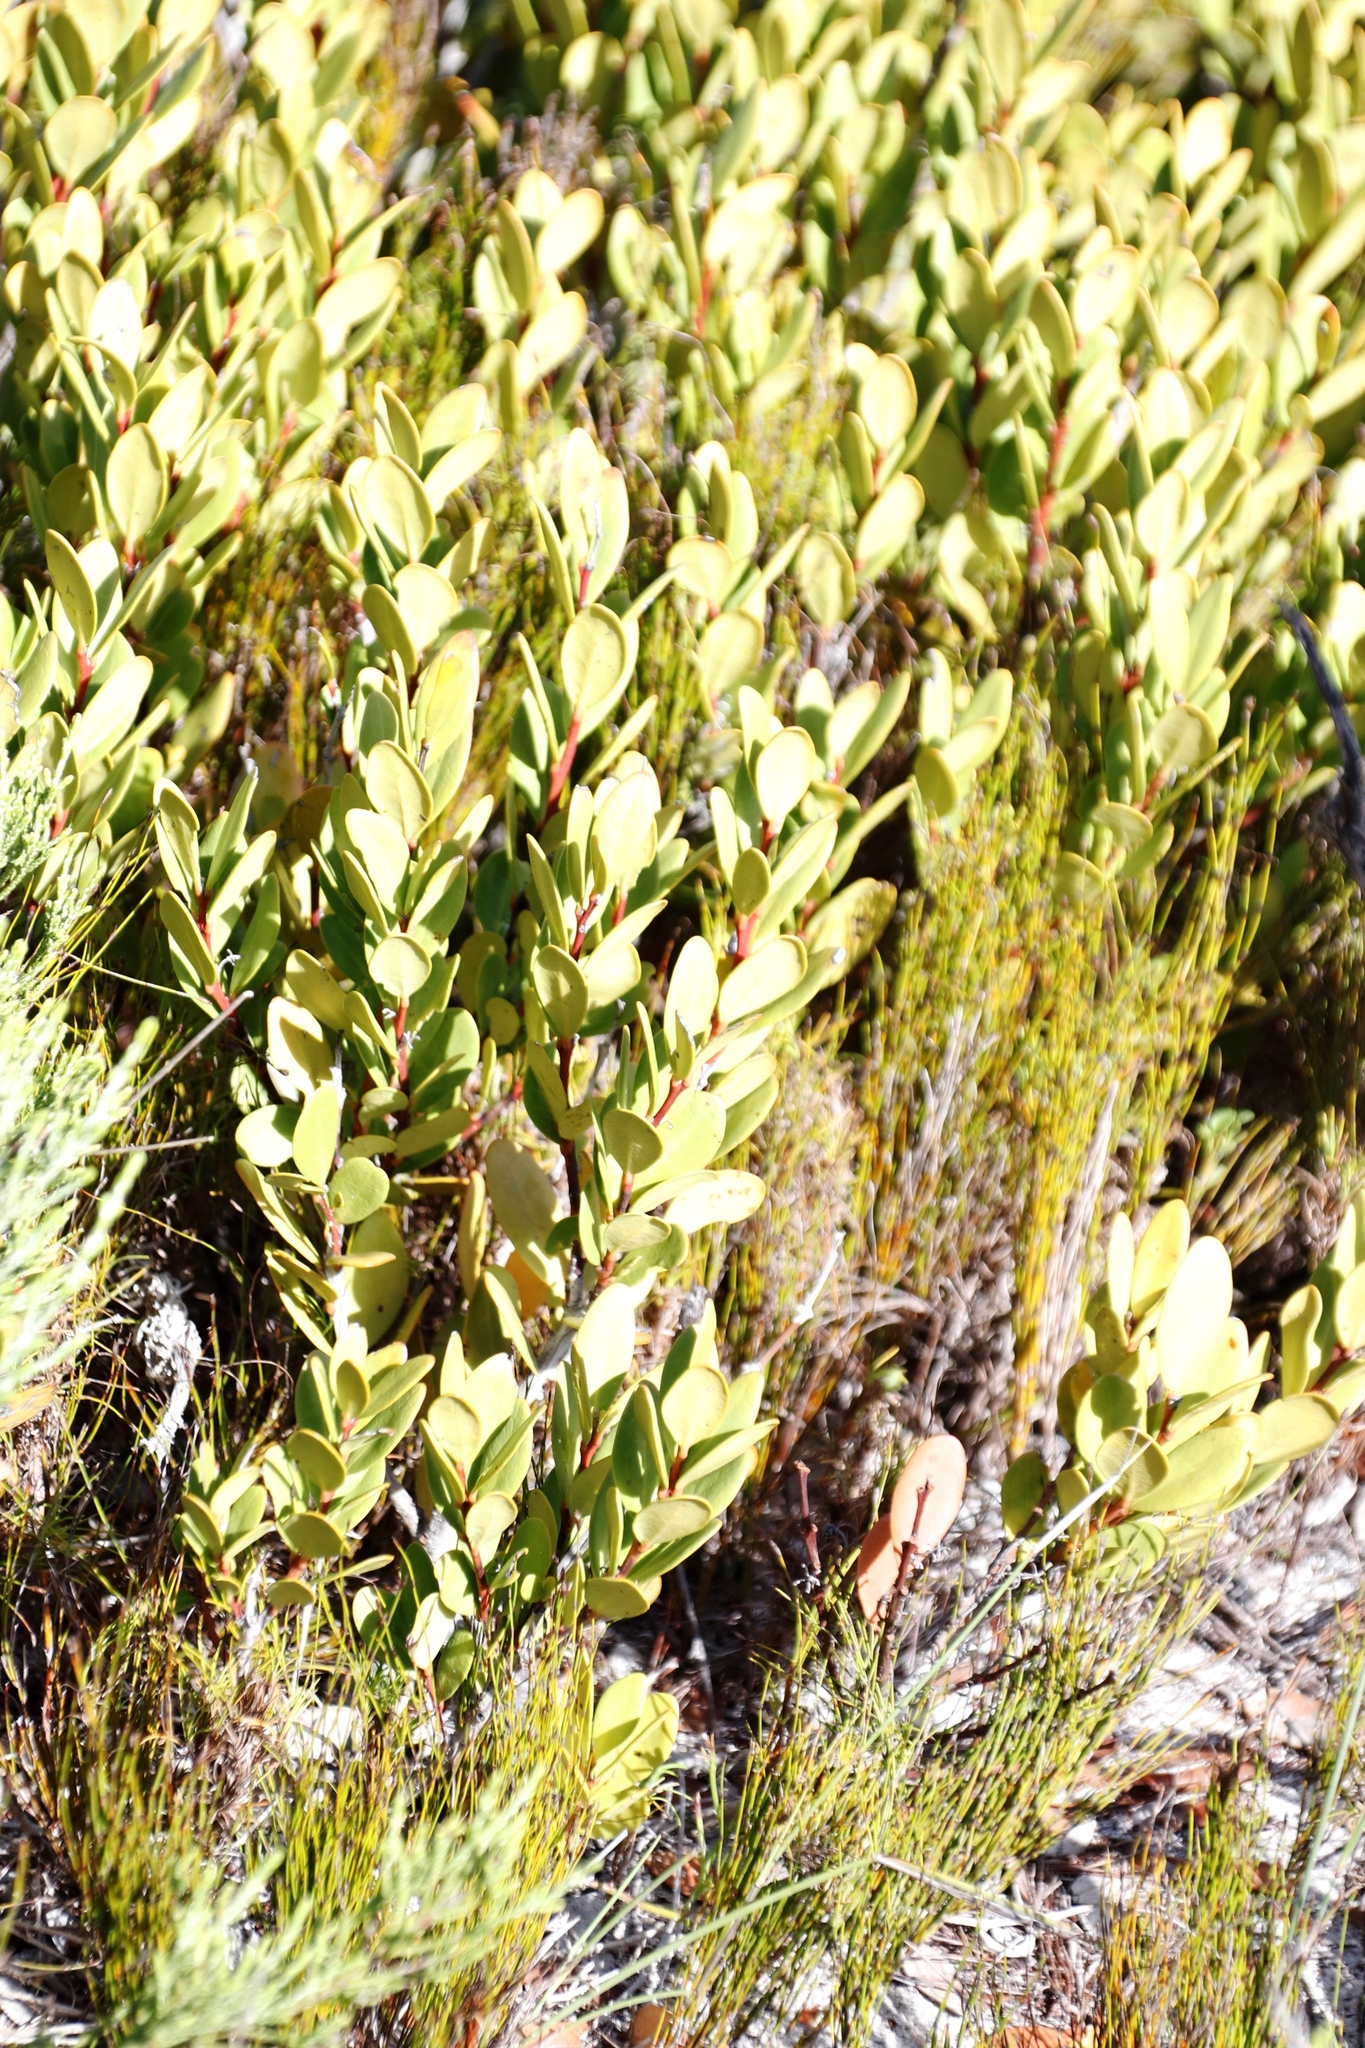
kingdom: Plantae
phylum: Tracheophyta
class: Magnoliopsida
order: Ericales
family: Ebenaceae
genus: Euclea
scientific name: Euclea racemosa
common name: Dune guarri
